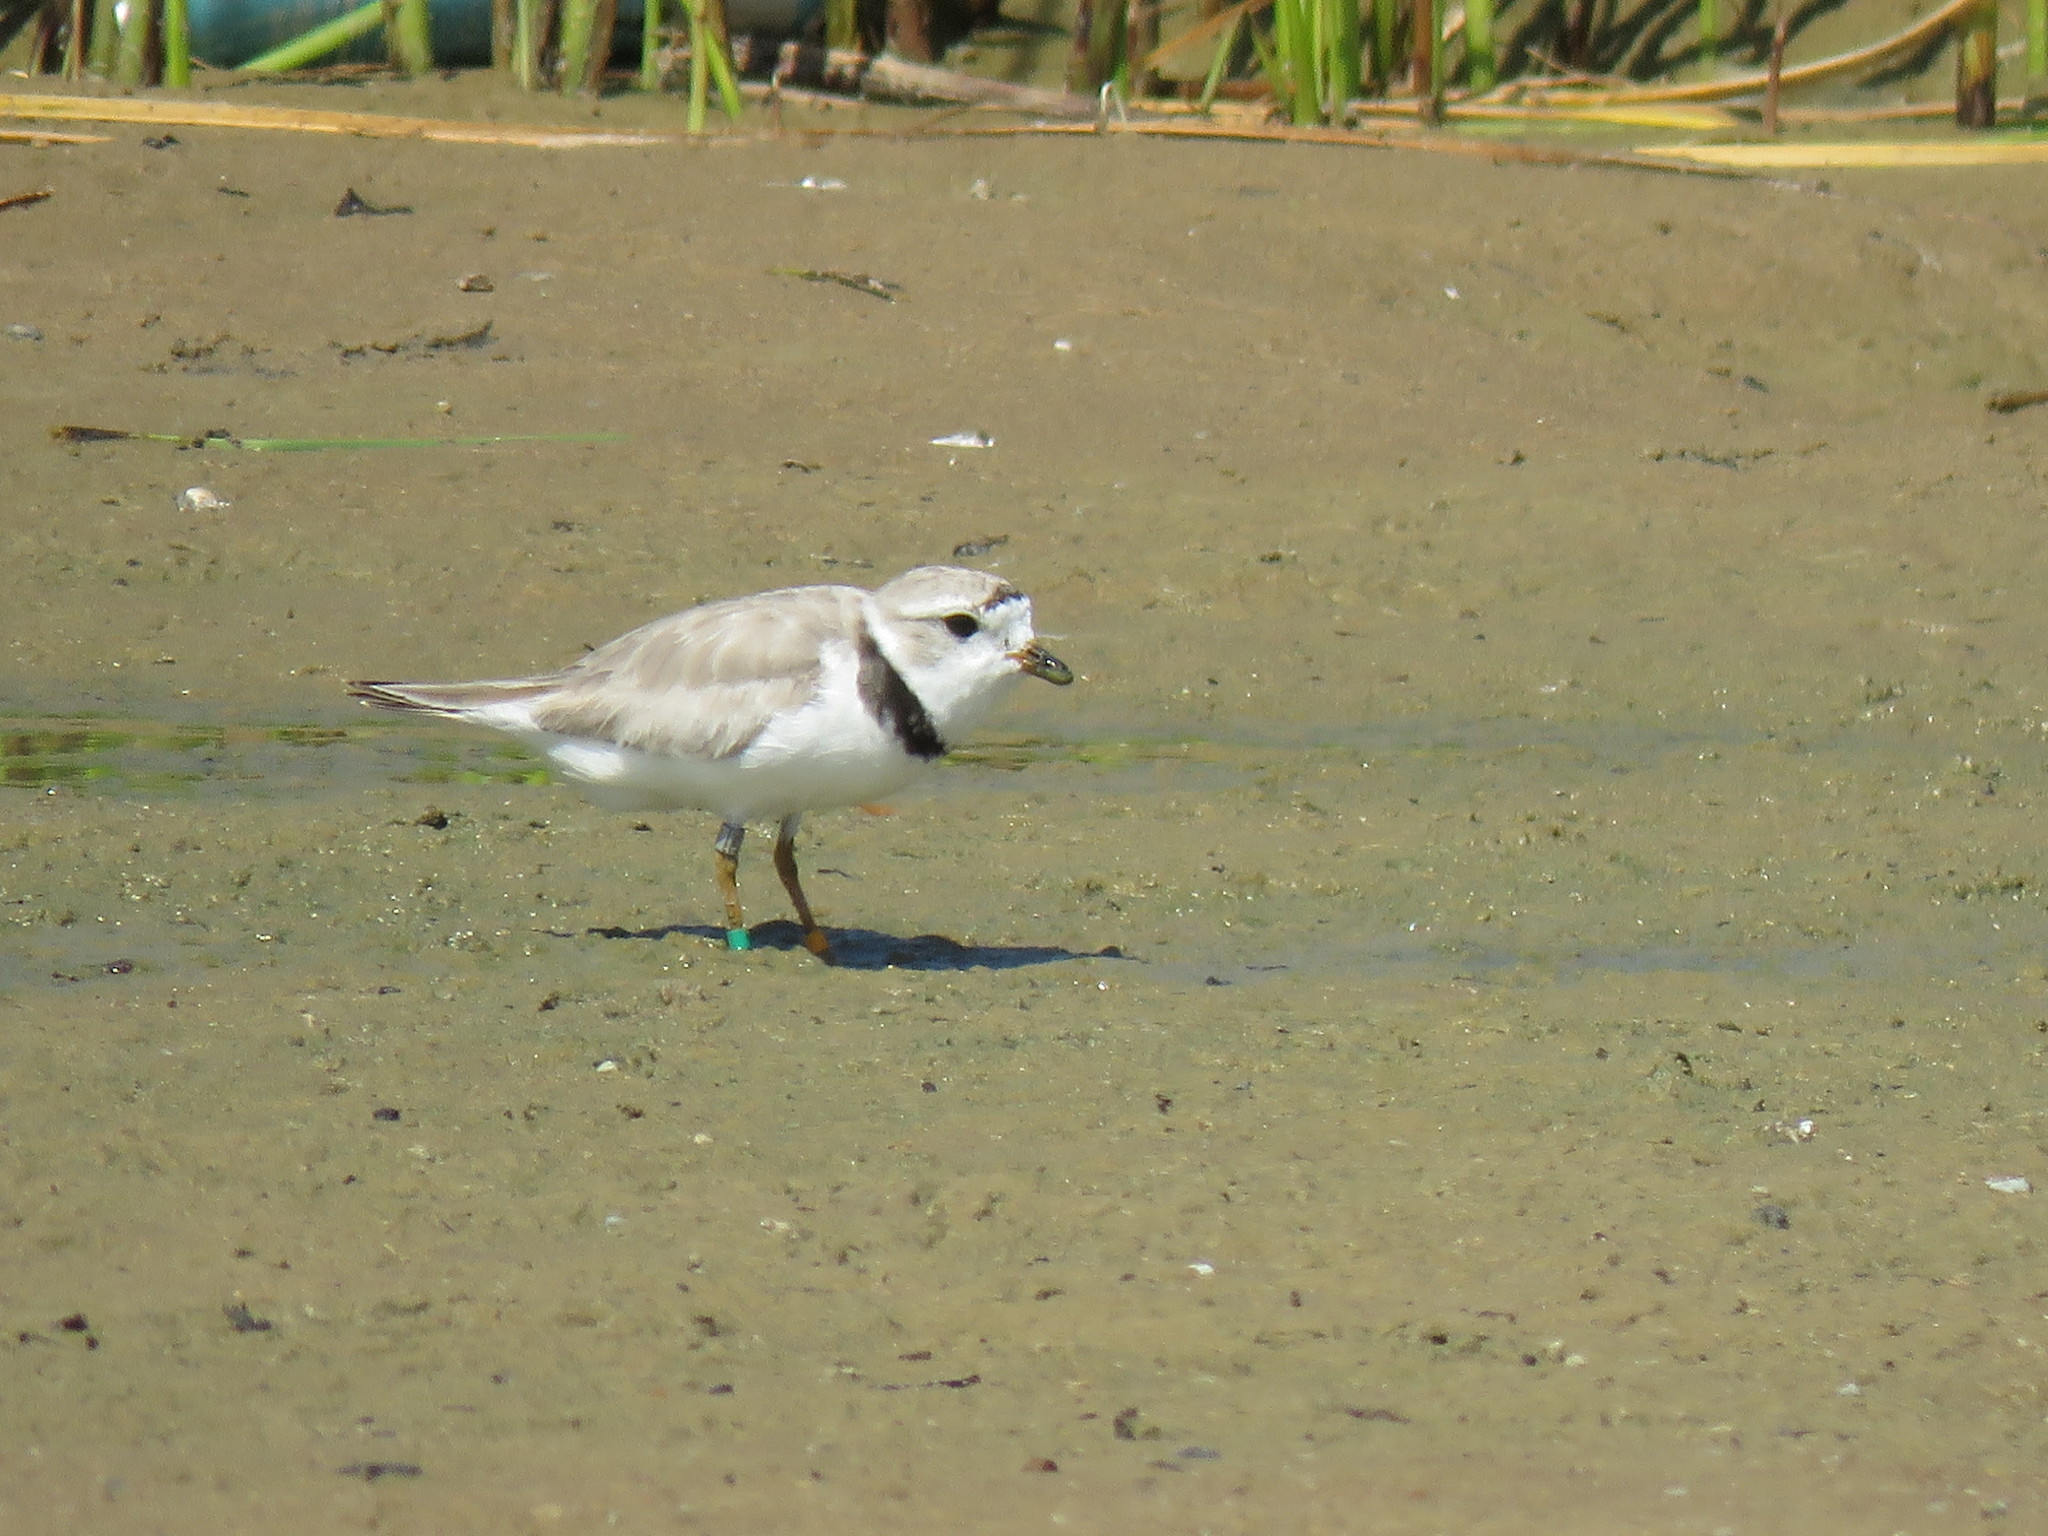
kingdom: Animalia
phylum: Chordata
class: Aves
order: Charadriiformes
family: Charadriidae
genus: Charadrius
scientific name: Charadrius melodus
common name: Piping plover
